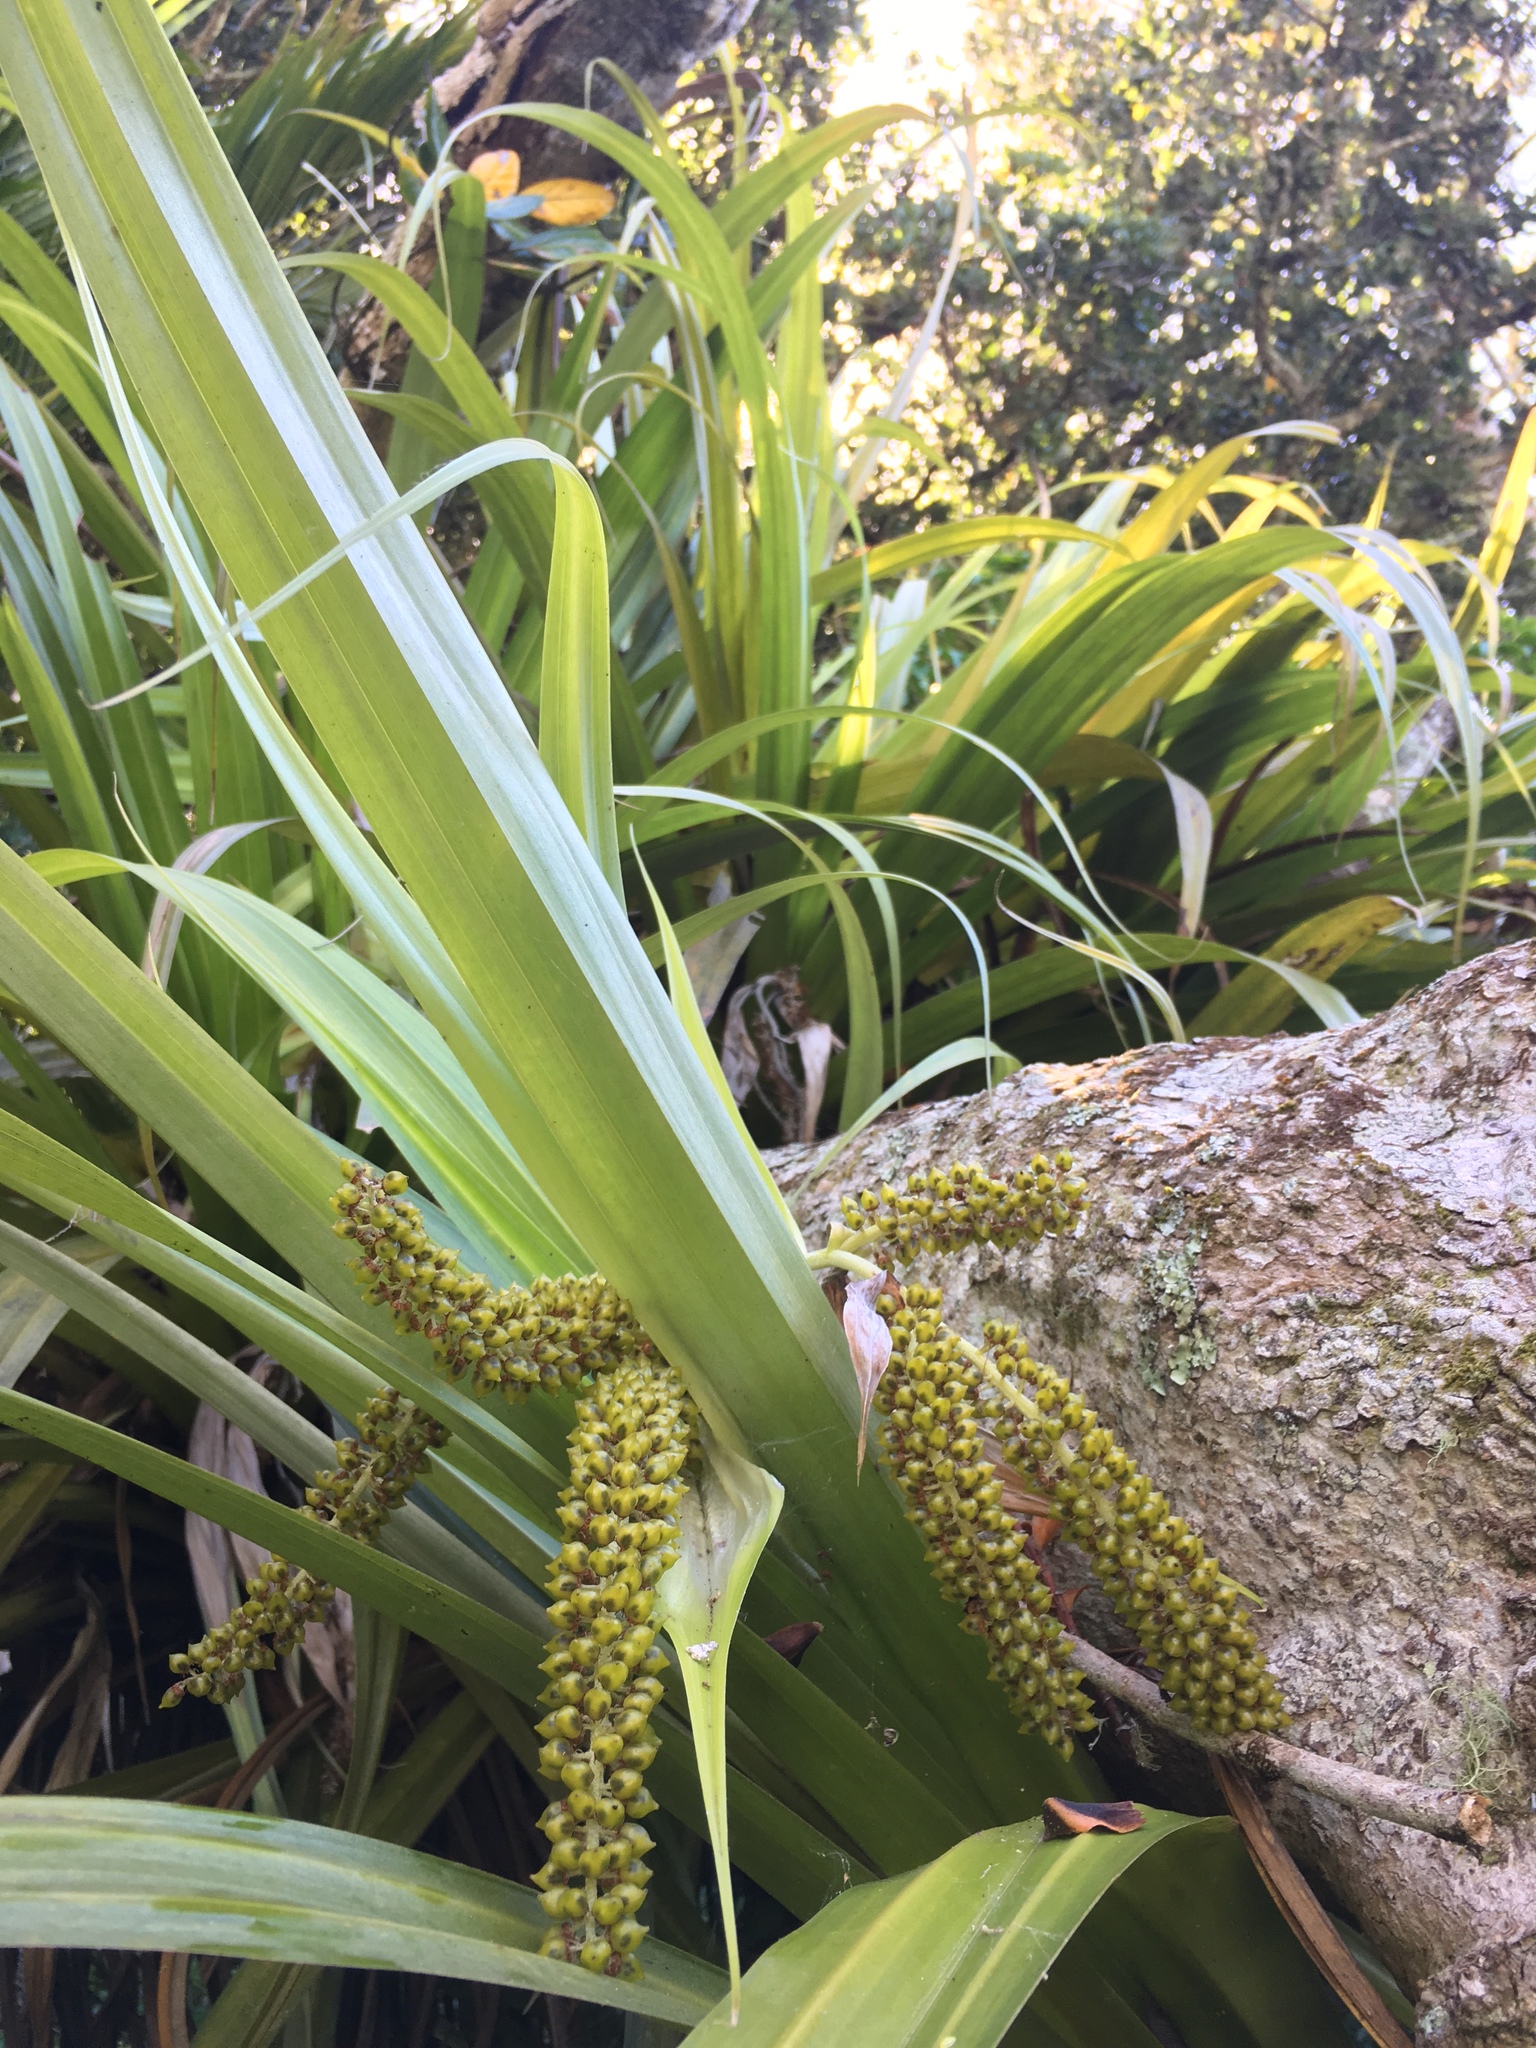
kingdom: Plantae
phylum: Tracheophyta
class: Liliopsida
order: Asparagales
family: Asteliaceae
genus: Astelia
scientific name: Astelia hastata
